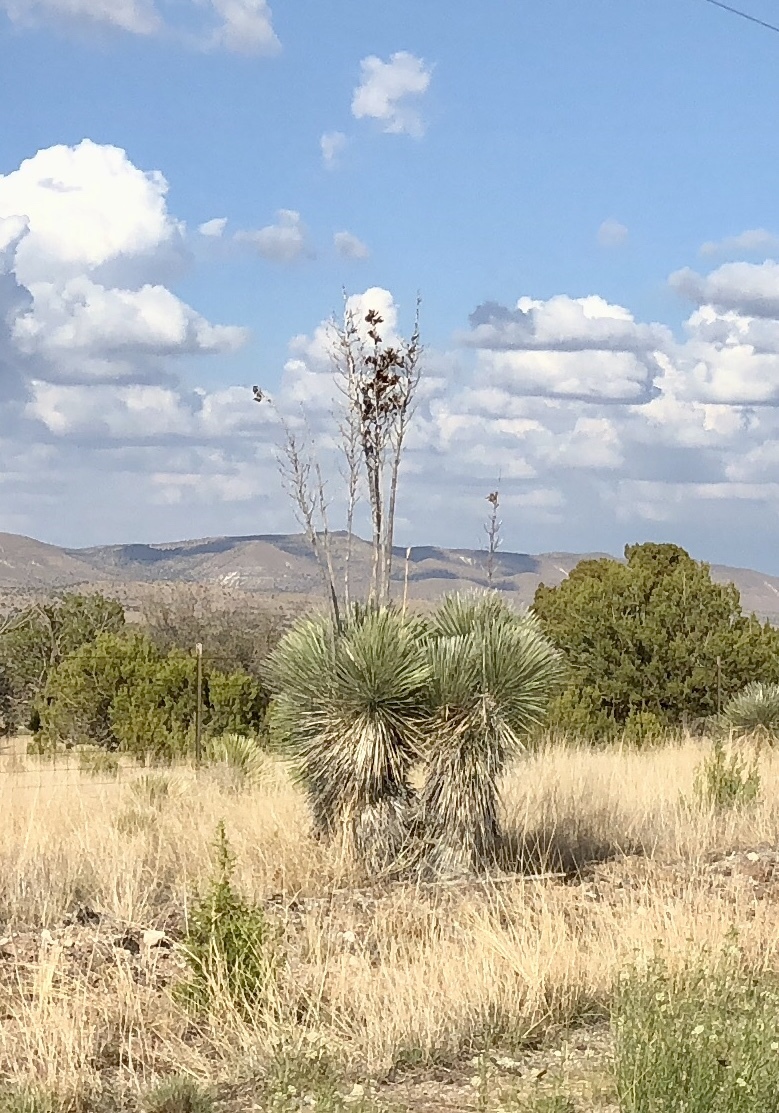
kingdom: Plantae
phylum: Tracheophyta
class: Liliopsida
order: Asparagales
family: Asparagaceae
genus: Yucca
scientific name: Yucca elata
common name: Palmella
